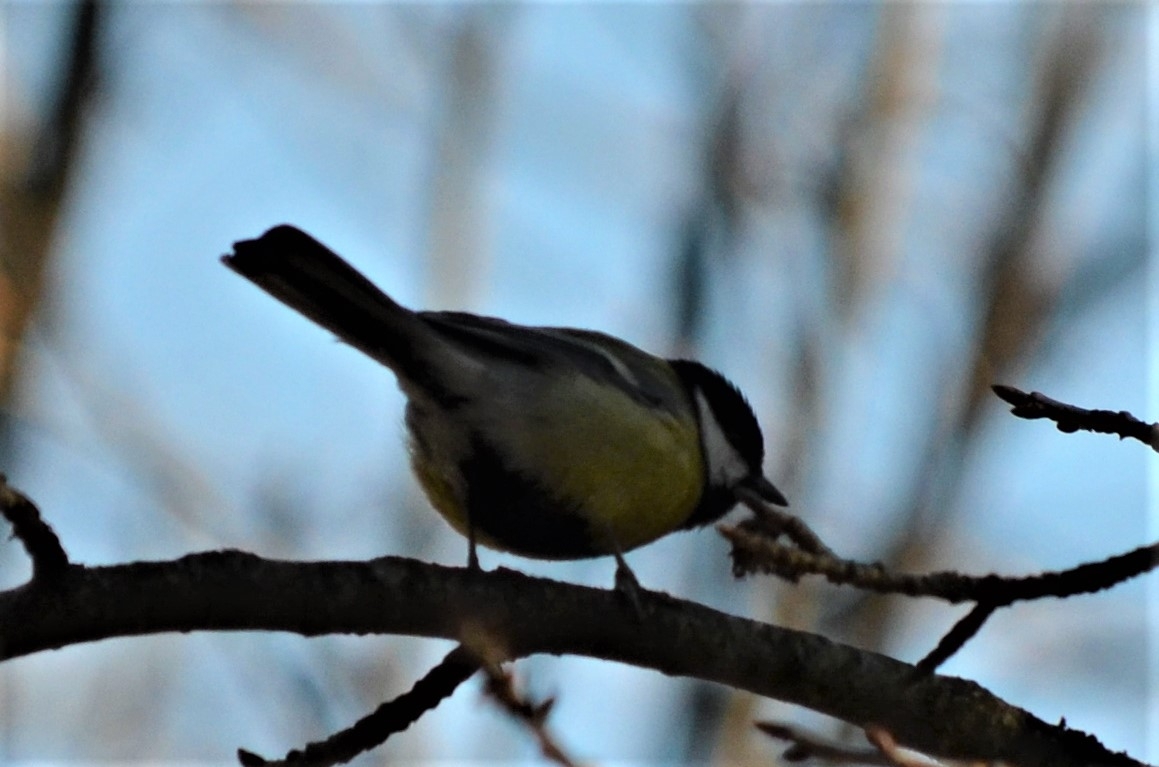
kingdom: Animalia
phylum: Chordata
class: Aves
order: Passeriformes
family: Paridae
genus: Parus
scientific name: Parus major
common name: Great tit
